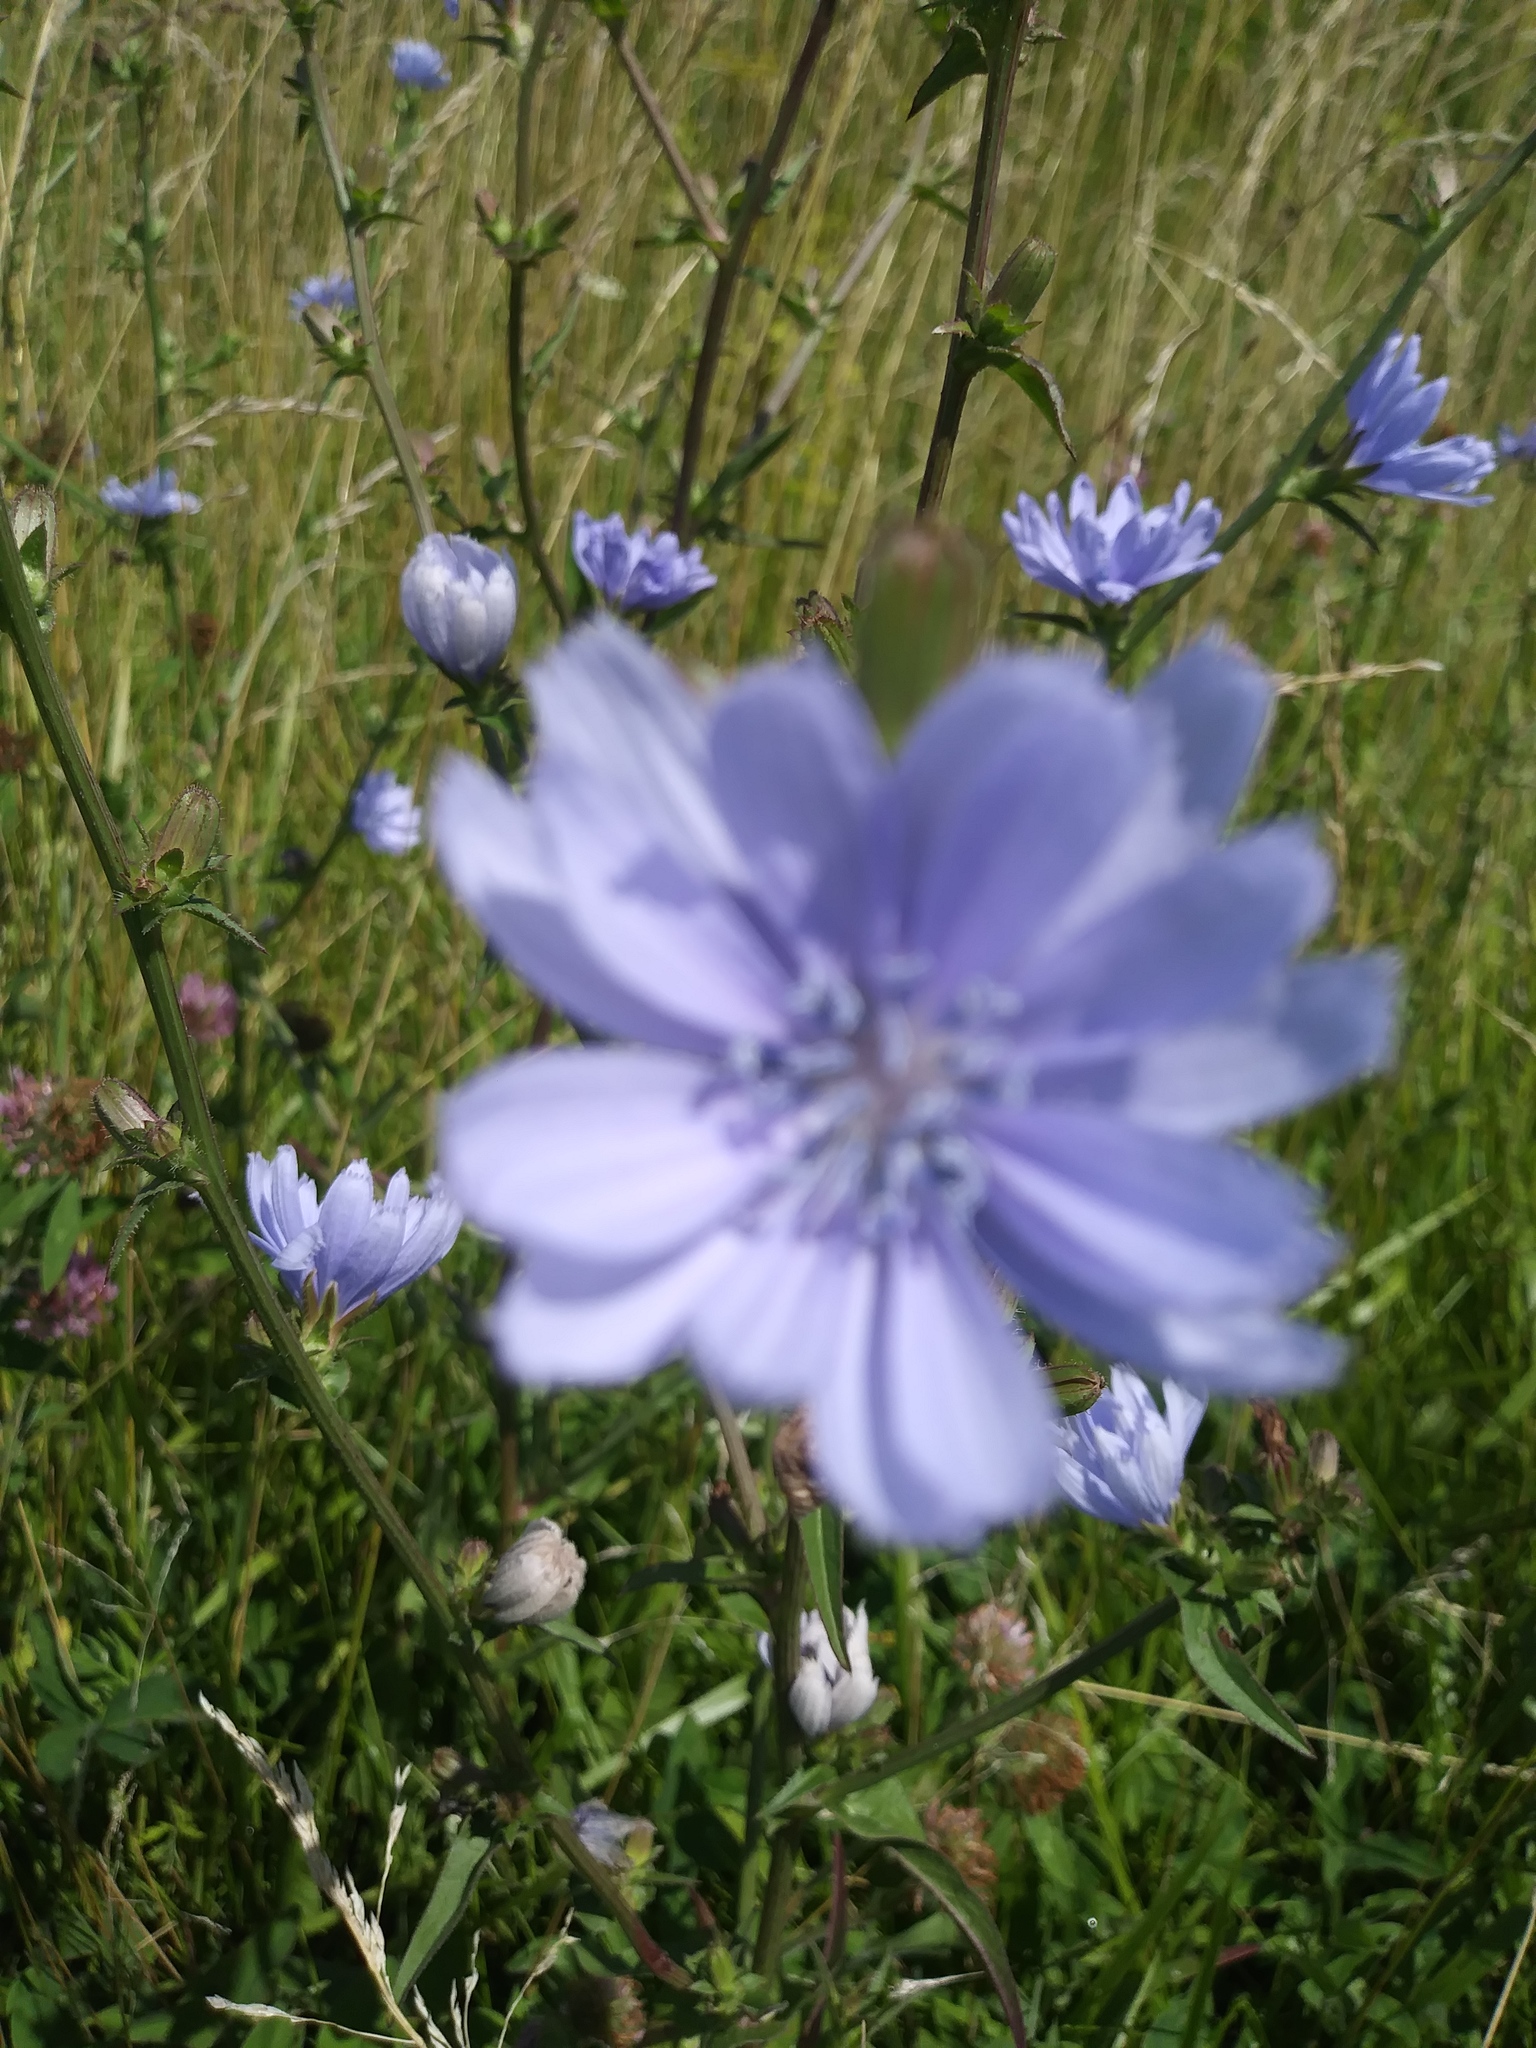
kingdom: Plantae
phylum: Tracheophyta
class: Magnoliopsida
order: Asterales
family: Asteraceae
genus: Cichorium
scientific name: Cichorium intybus
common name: Chicory
